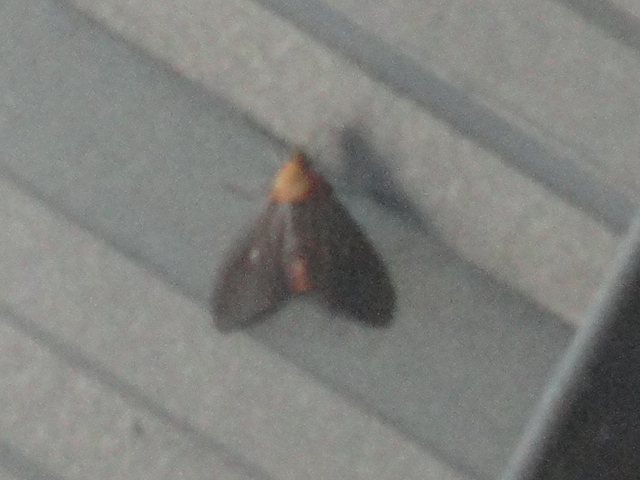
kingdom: Animalia
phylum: Arthropoda
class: Insecta
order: Lepidoptera
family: Erebidae
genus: Asota
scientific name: Asota caricae
